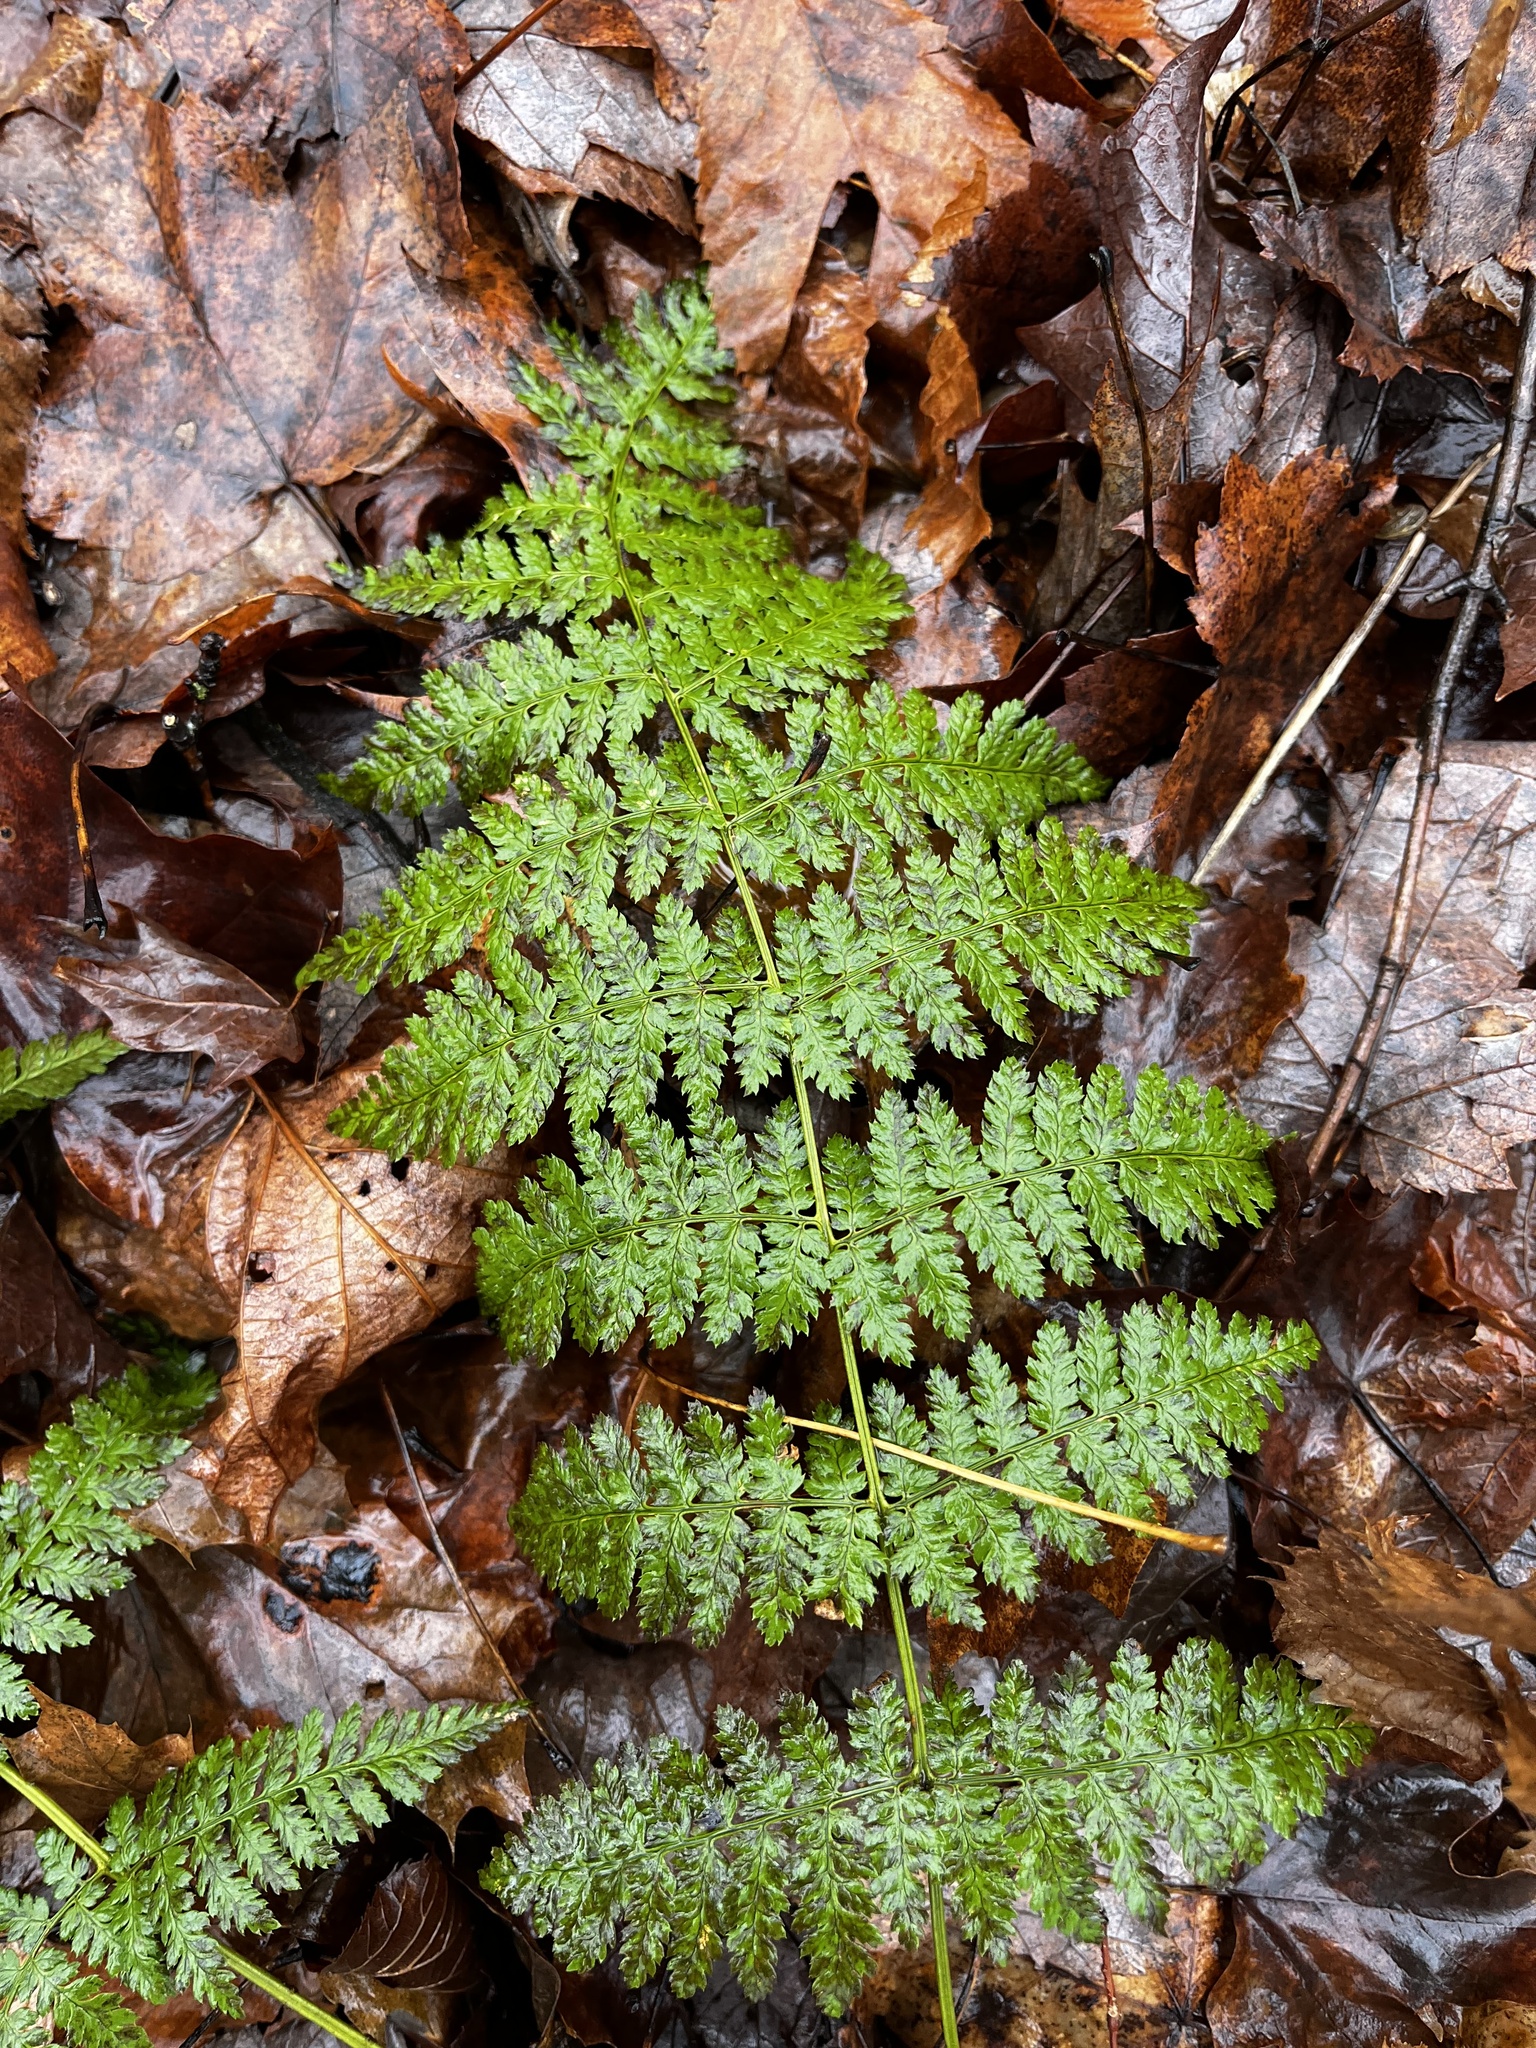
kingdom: Plantae
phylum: Tracheophyta
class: Polypodiopsida
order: Polypodiales
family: Dryopteridaceae
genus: Dryopteris
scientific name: Dryopteris intermedia
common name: Evergreen wood fern
